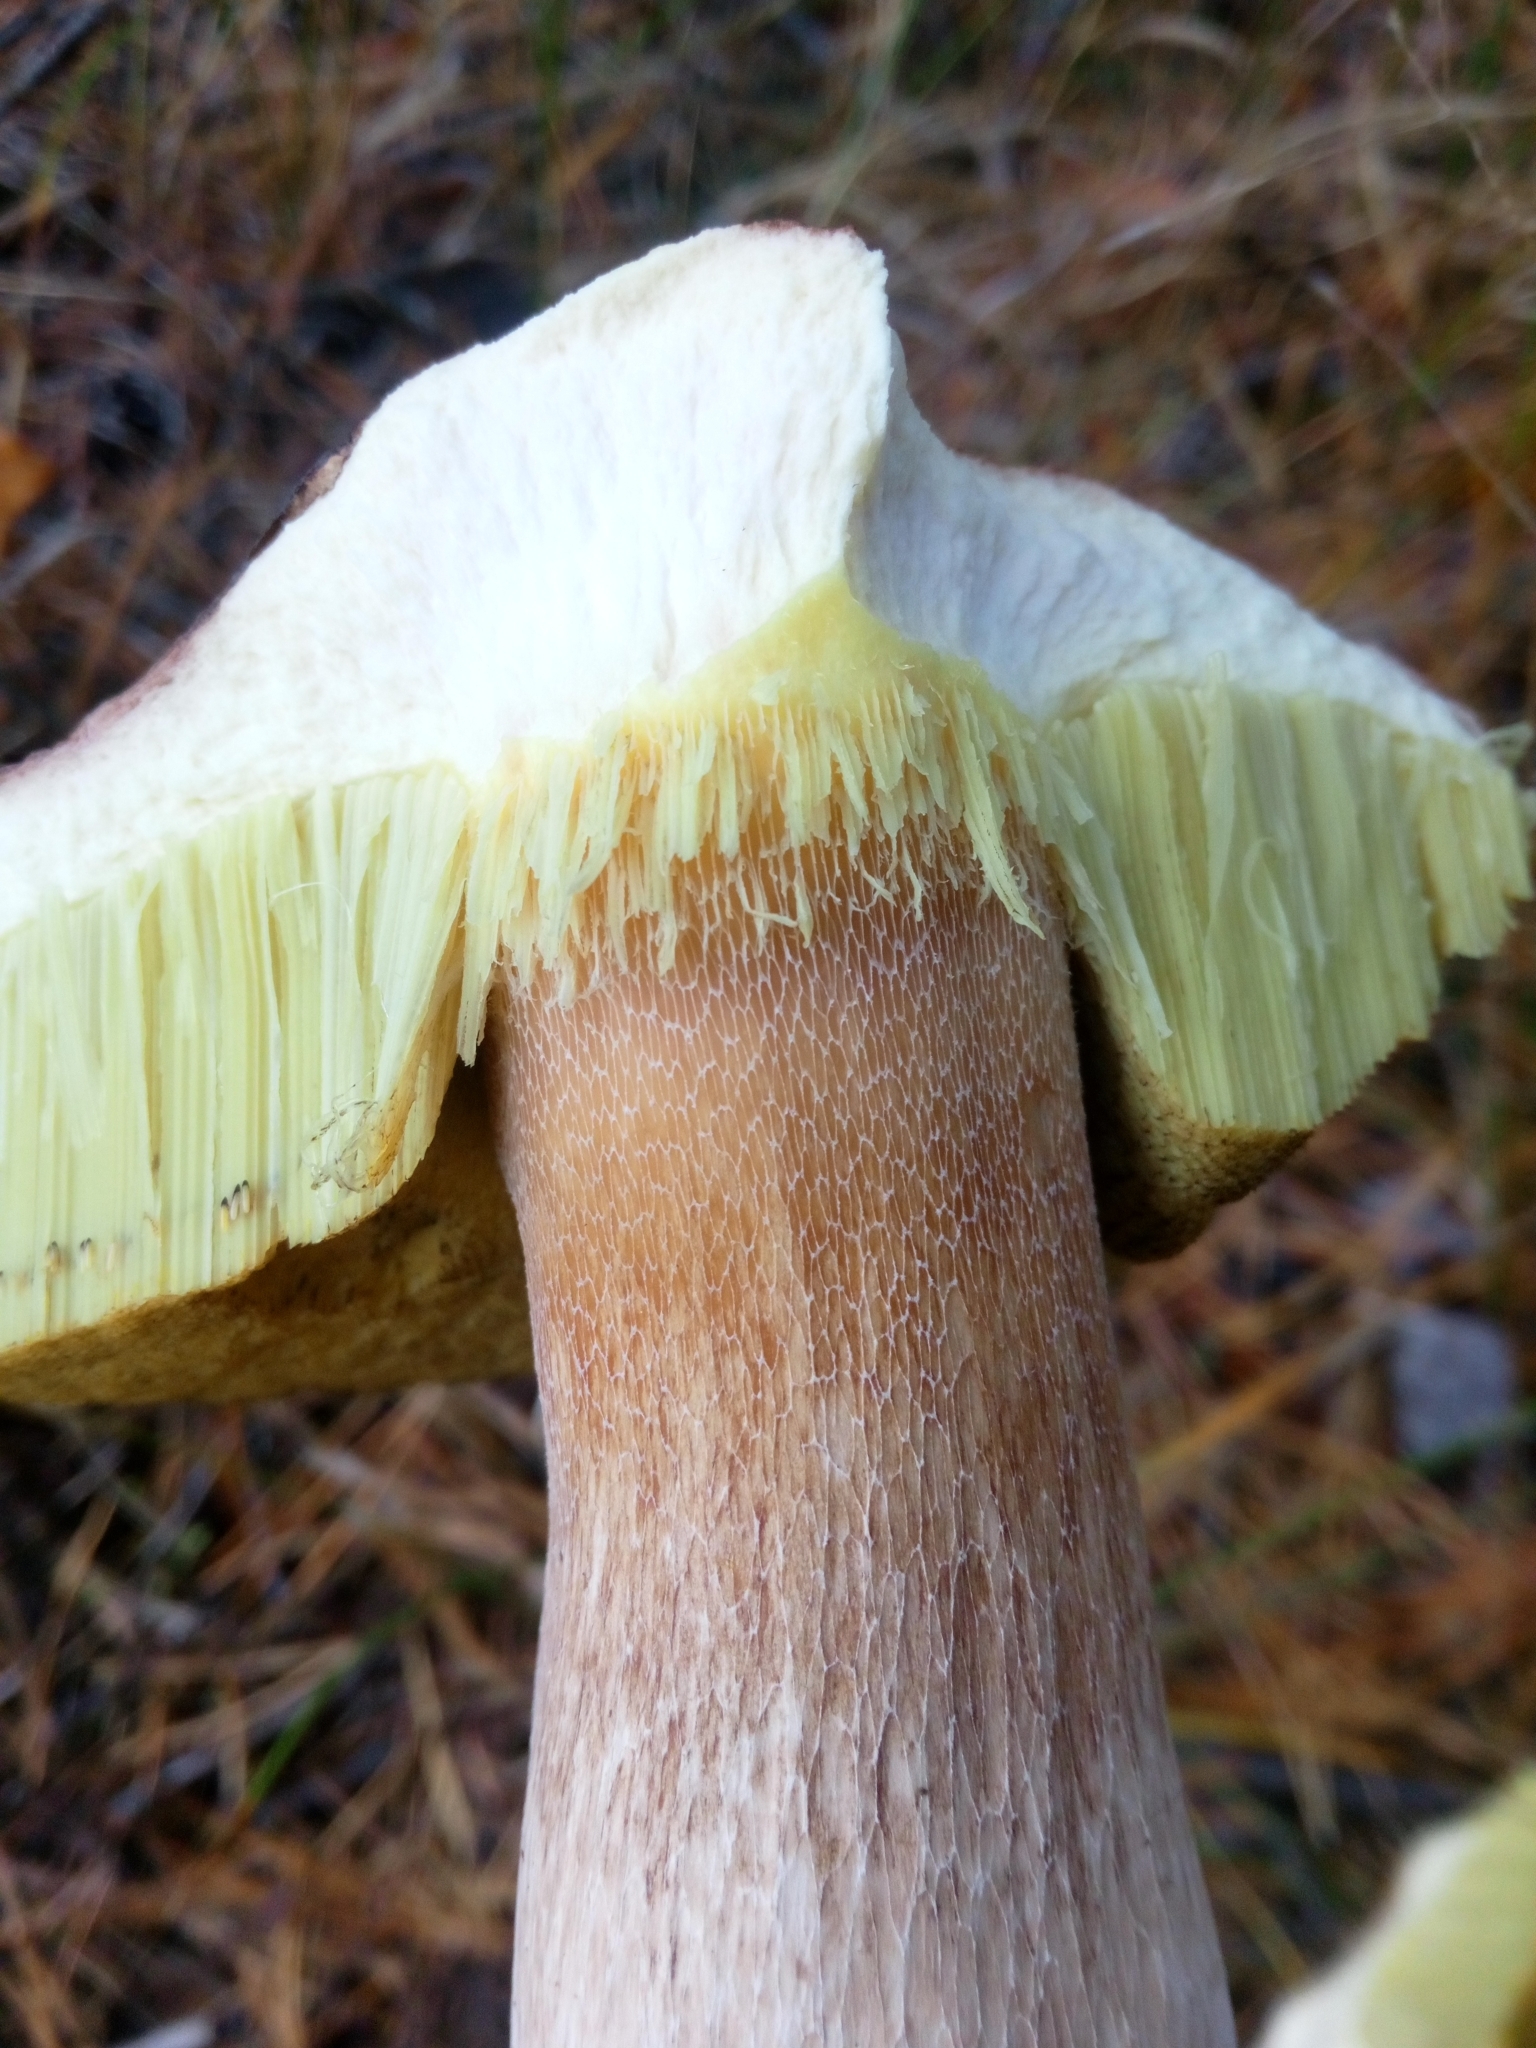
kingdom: Fungi
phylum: Basidiomycota
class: Agaricomycetes
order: Boletales
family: Boletaceae
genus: Boletus
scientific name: Boletus edulis
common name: Cep
